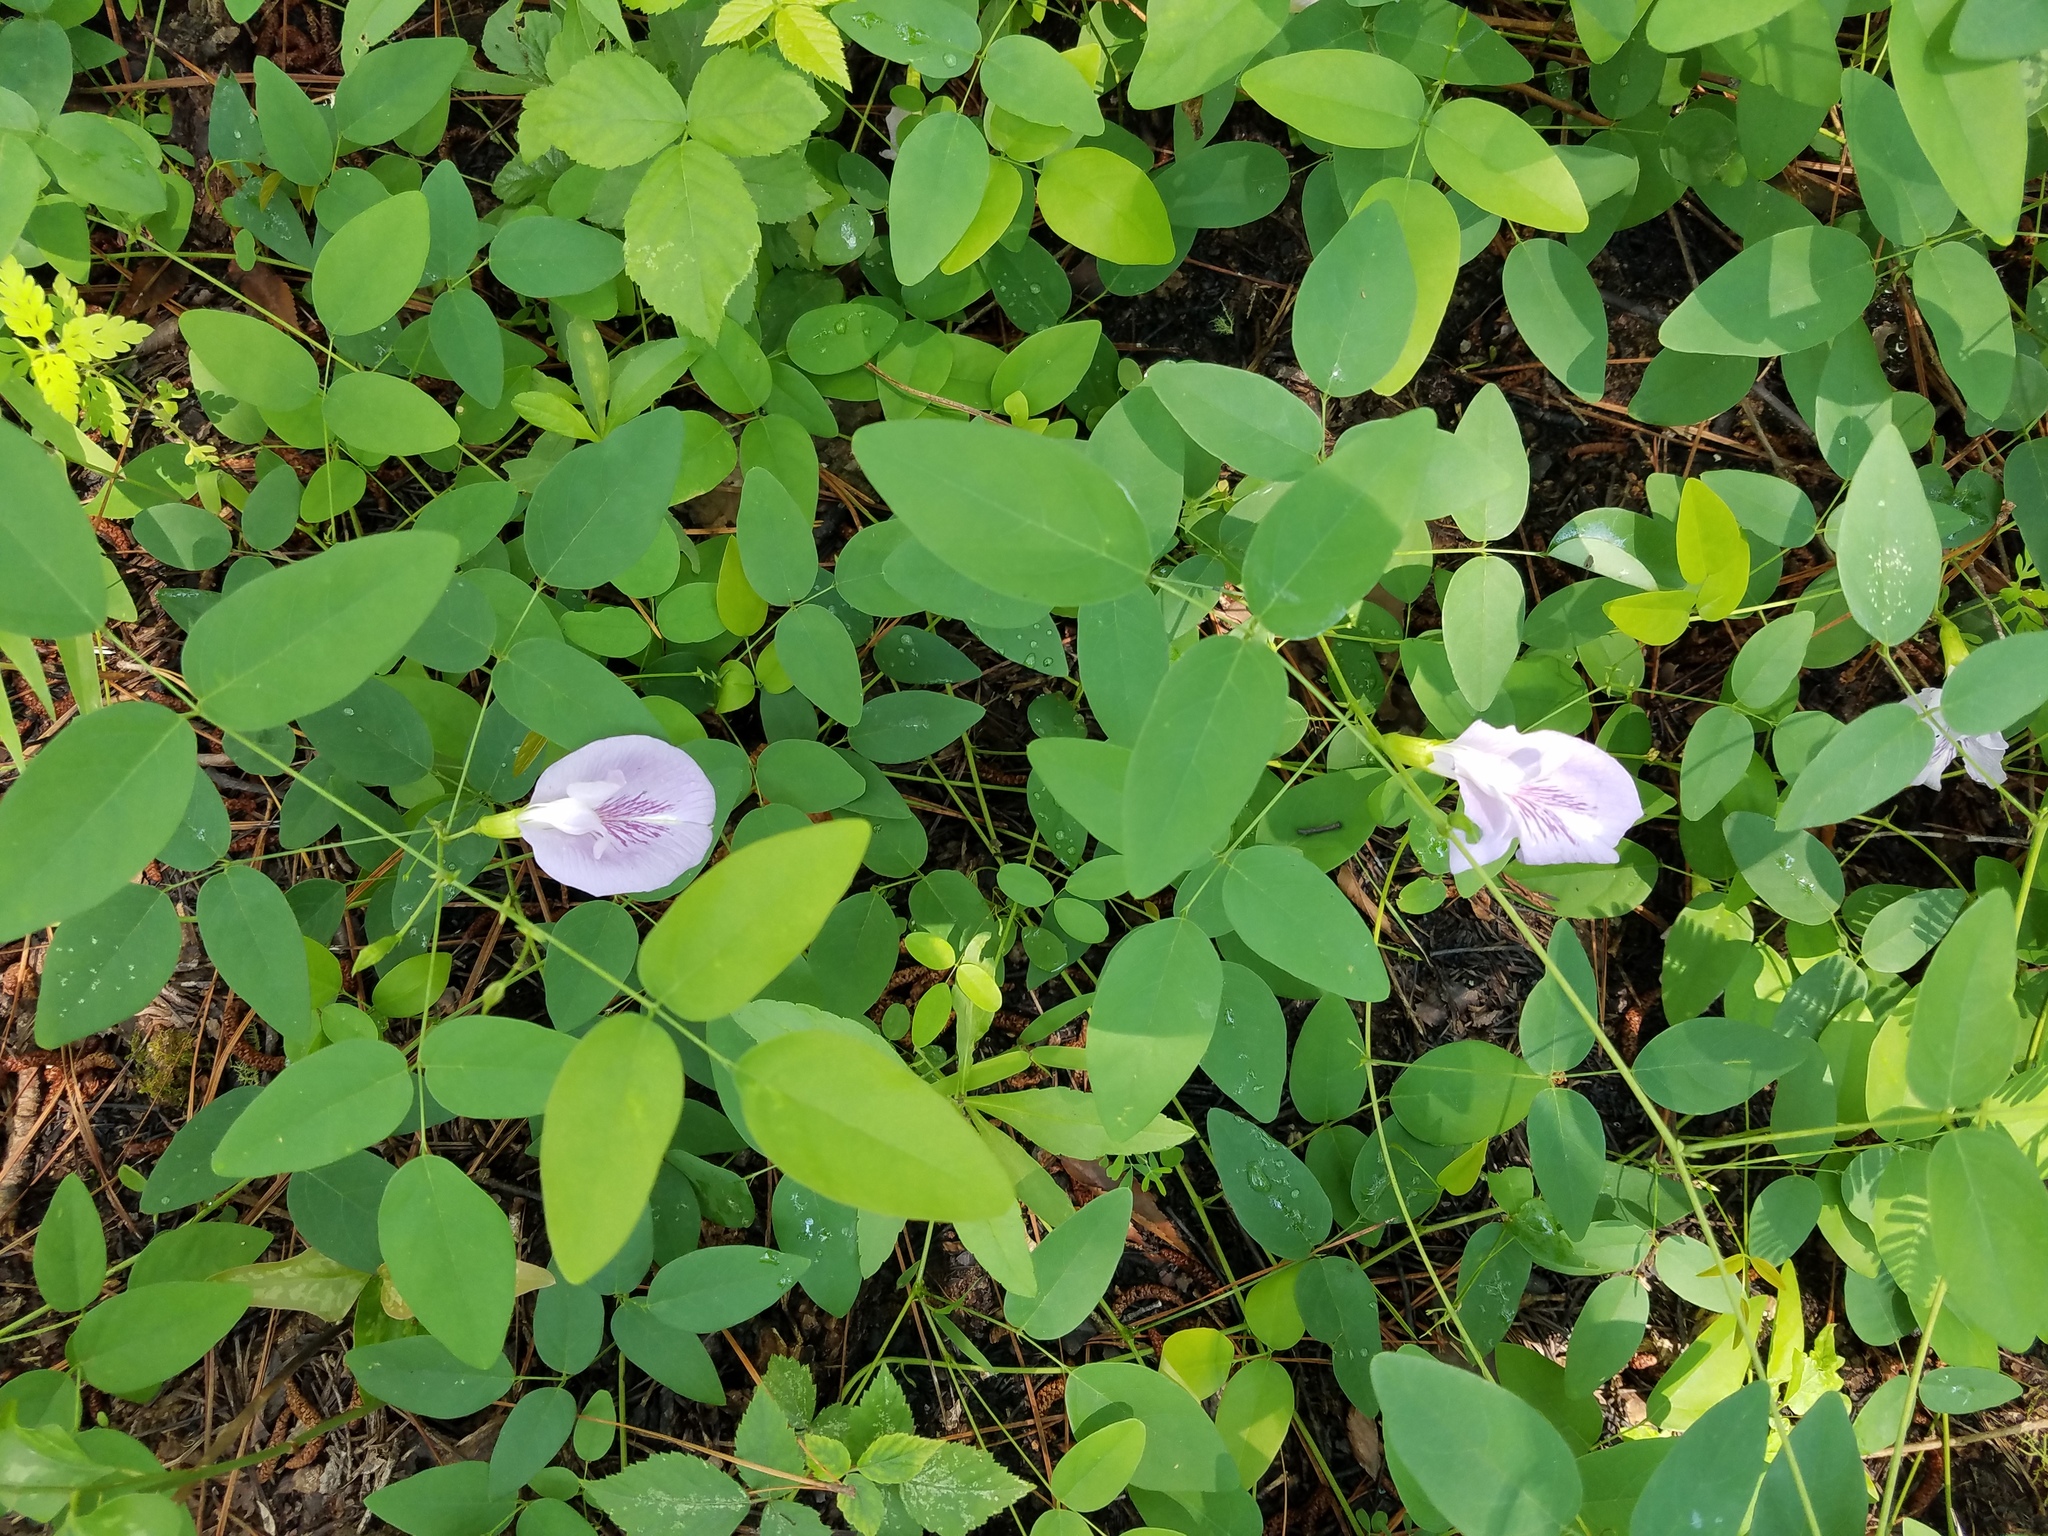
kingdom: Plantae
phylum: Tracheophyta
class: Magnoliopsida
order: Fabales
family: Fabaceae
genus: Clitoria
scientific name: Clitoria mariana
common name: Butterfly-pea
